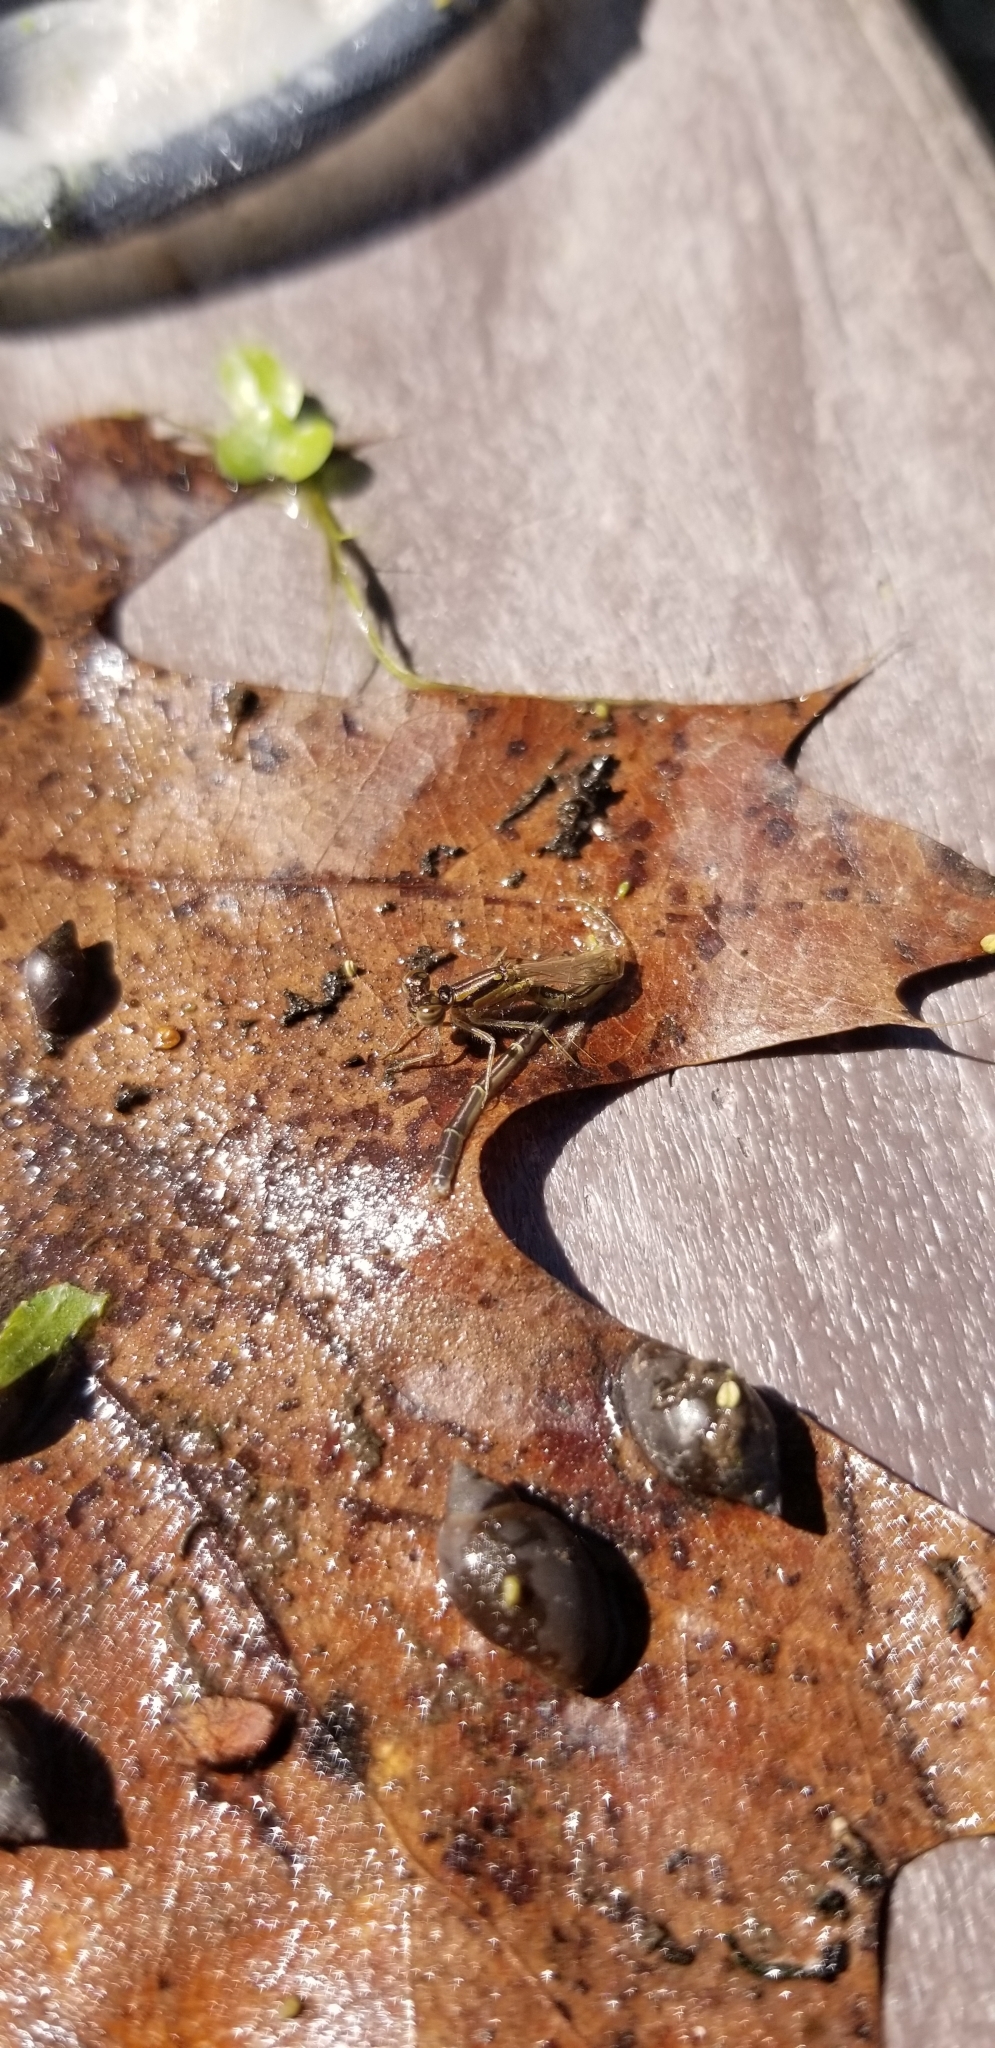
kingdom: Animalia
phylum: Arthropoda
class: Insecta
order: Odonata
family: Coenagrionidae
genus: Ischnura
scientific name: Ischnura posita
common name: Fragile forktail
